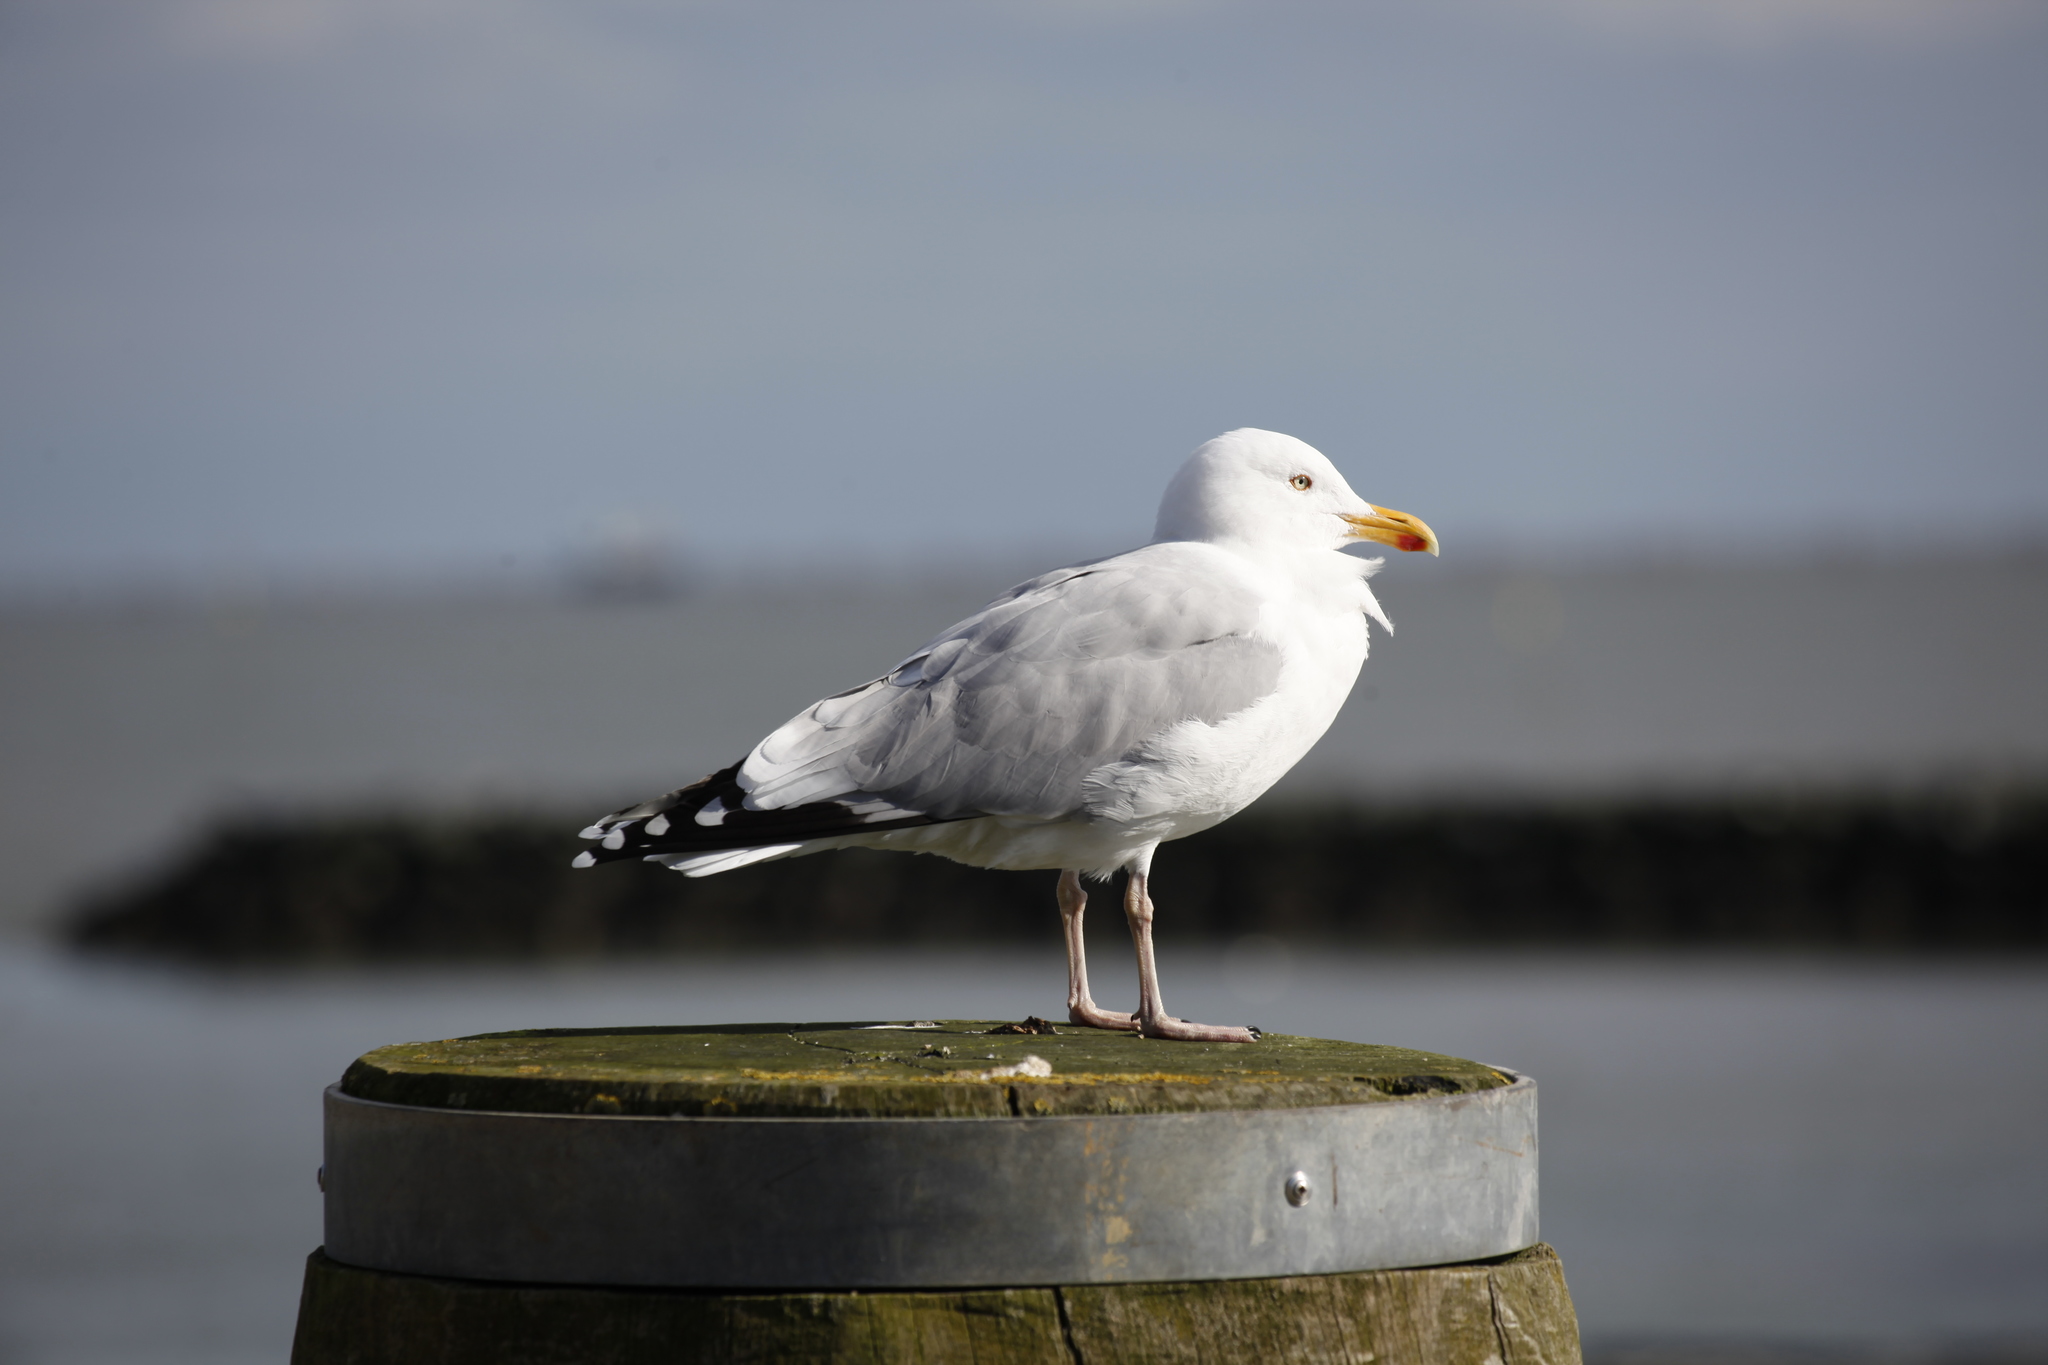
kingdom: Animalia
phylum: Chordata
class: Aves
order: Charadriiformes
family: Laridae
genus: Larus
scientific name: Larus argentatus
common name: Herring gull
